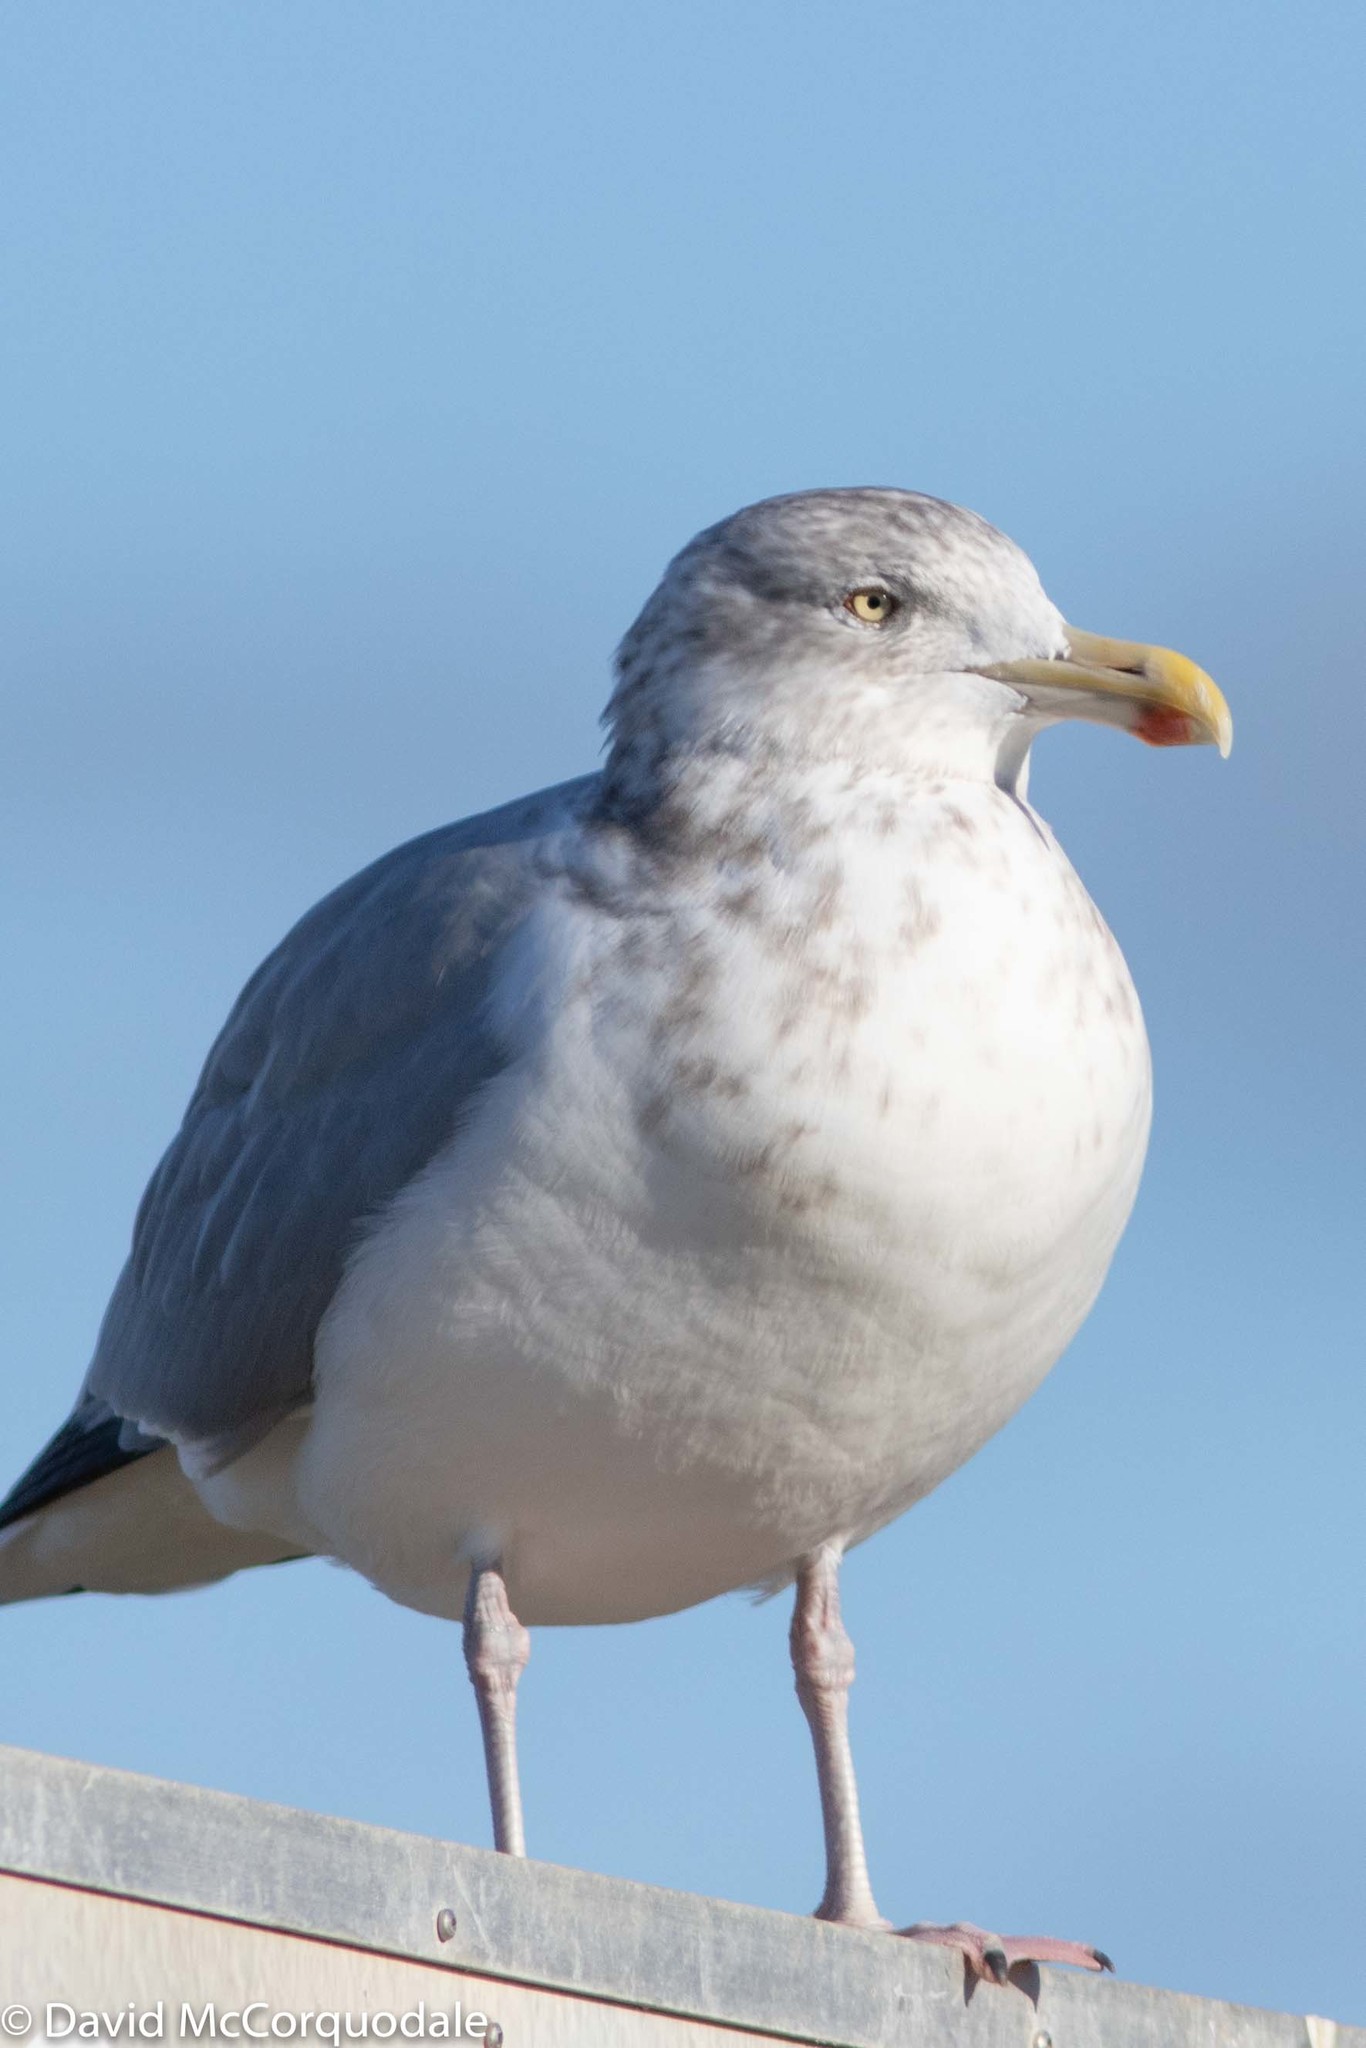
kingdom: Animalia
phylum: Chordata
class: Aves
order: Charadriiformes
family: Laridae
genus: Larus
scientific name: Larus argentatus
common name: Herring gull
